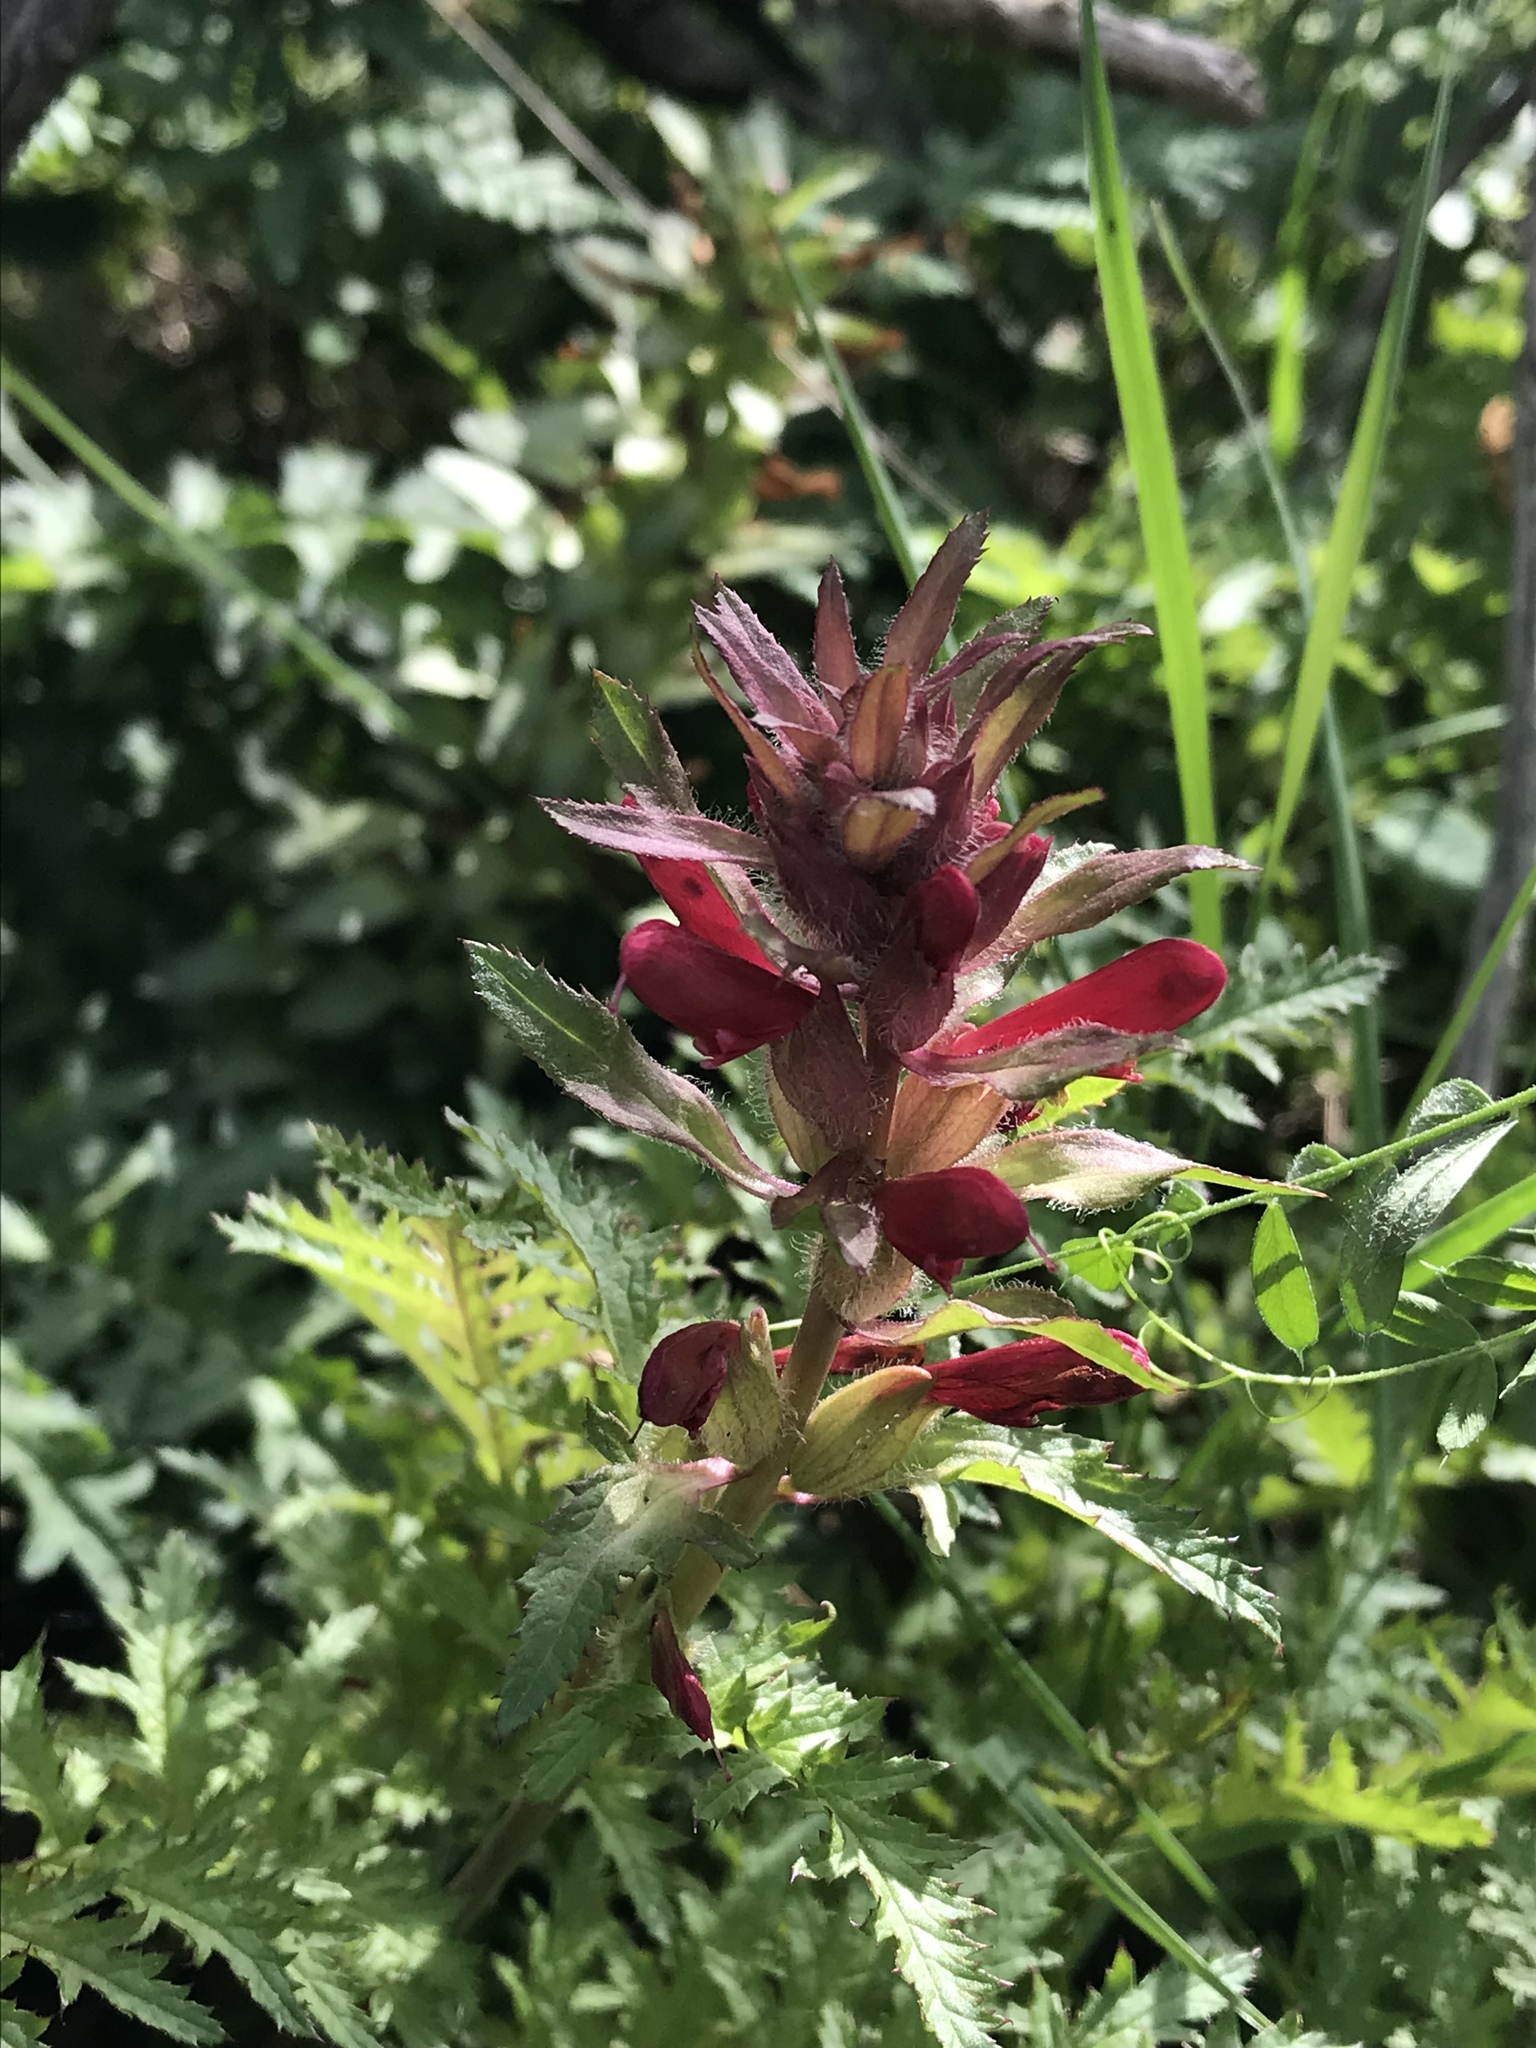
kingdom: Plantae
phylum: Tracheophyta
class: Magnoliopsida
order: Lamiales
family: Orobanchaceae
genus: Pedicularis
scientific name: Pedicularis densiflora
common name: Indian warrior
